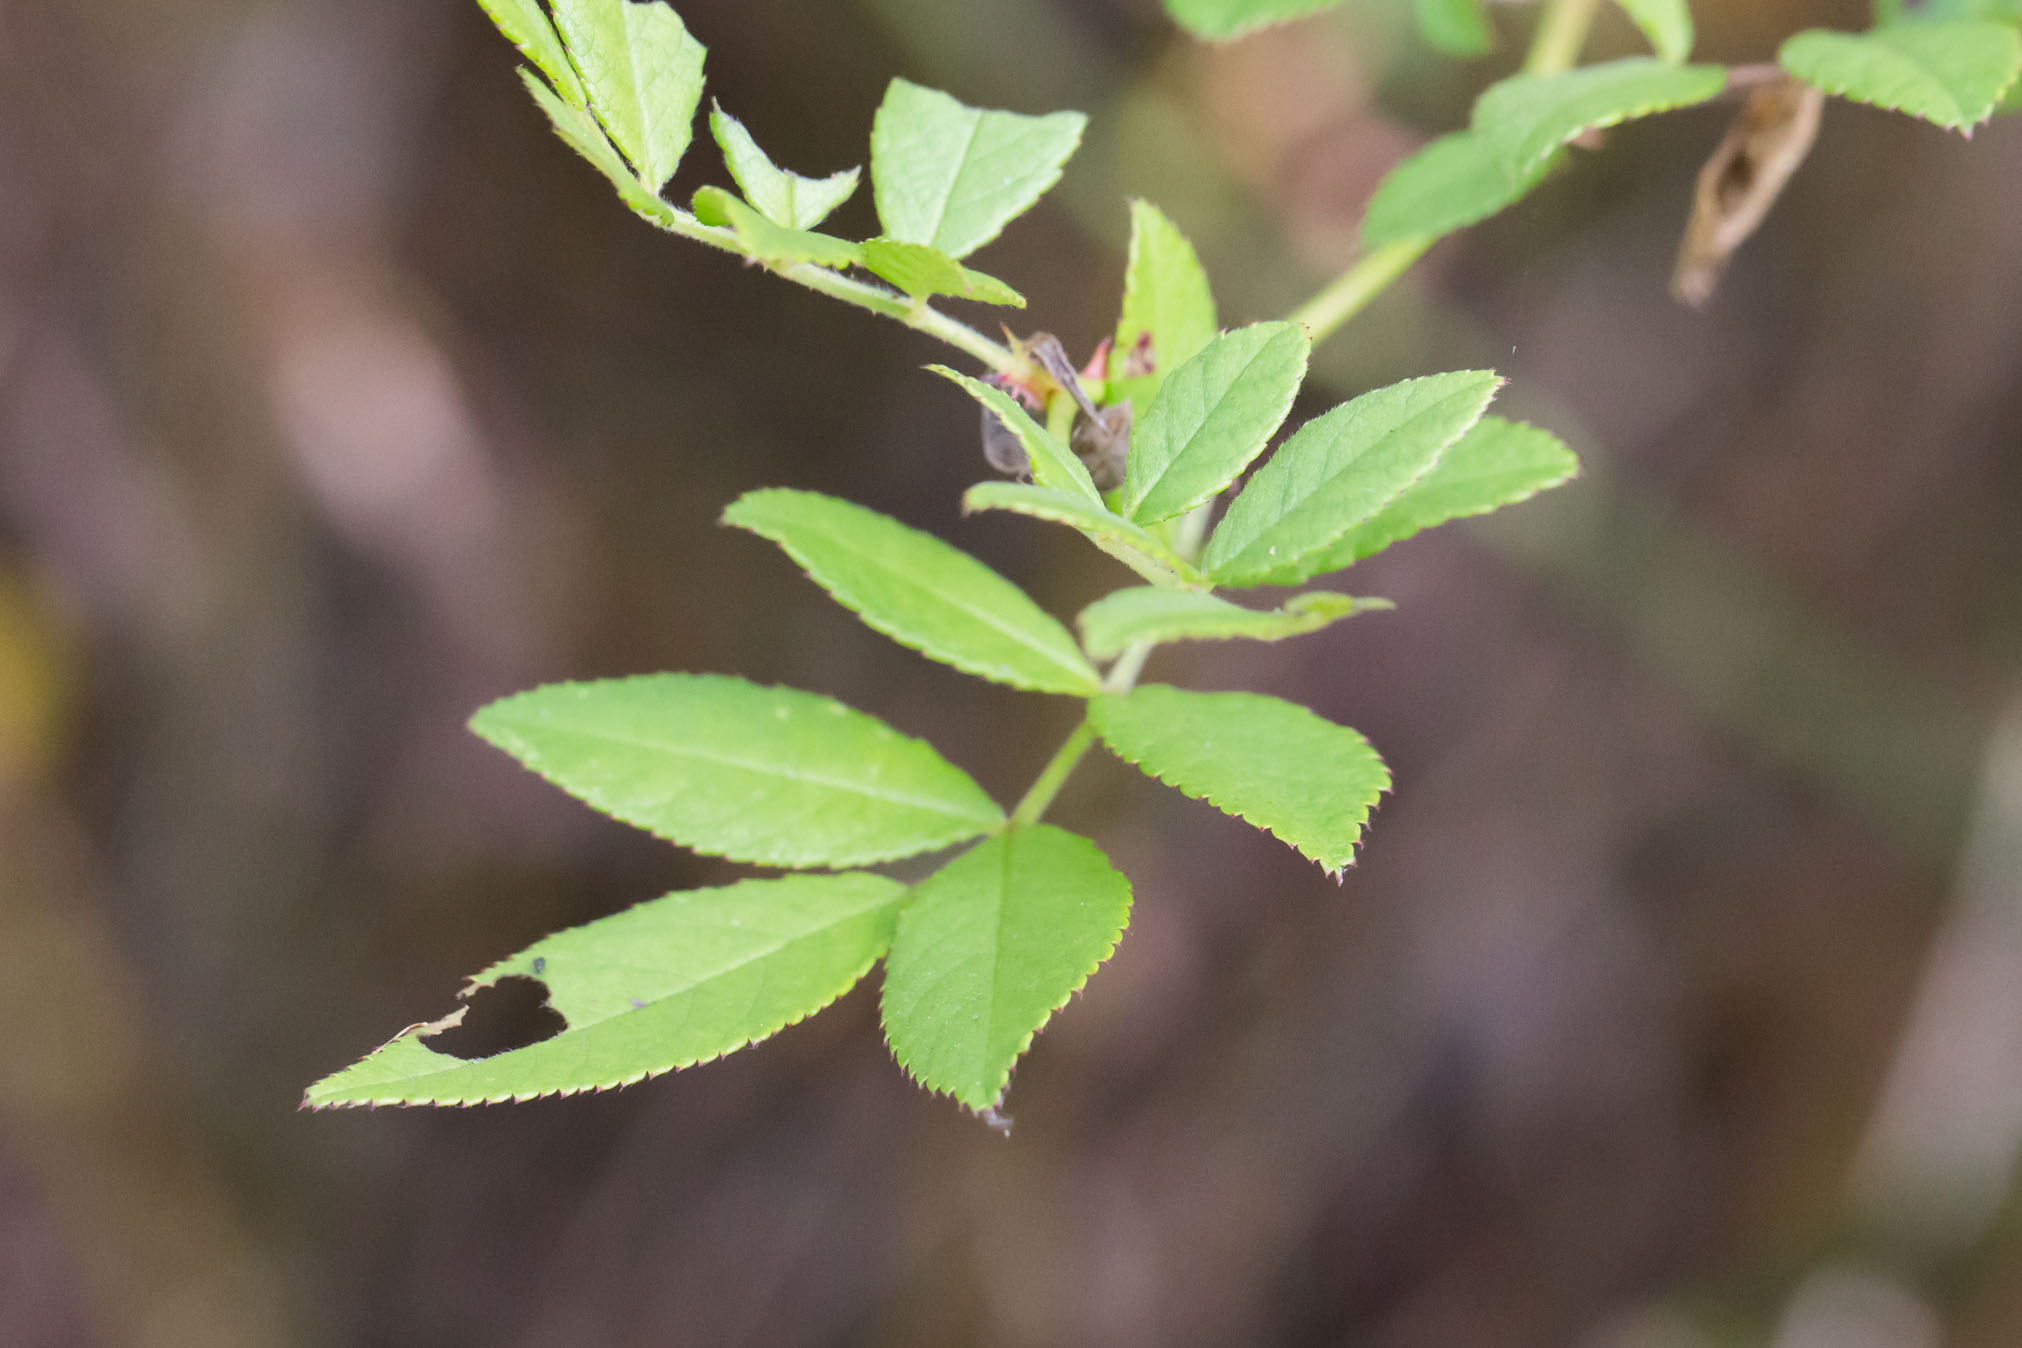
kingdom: Plantae
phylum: Tracheophyta
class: Magnoliopsida
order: Rosales
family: Rosaceae
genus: Rosa
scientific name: Rosa multiflora
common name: Multiflora rose
